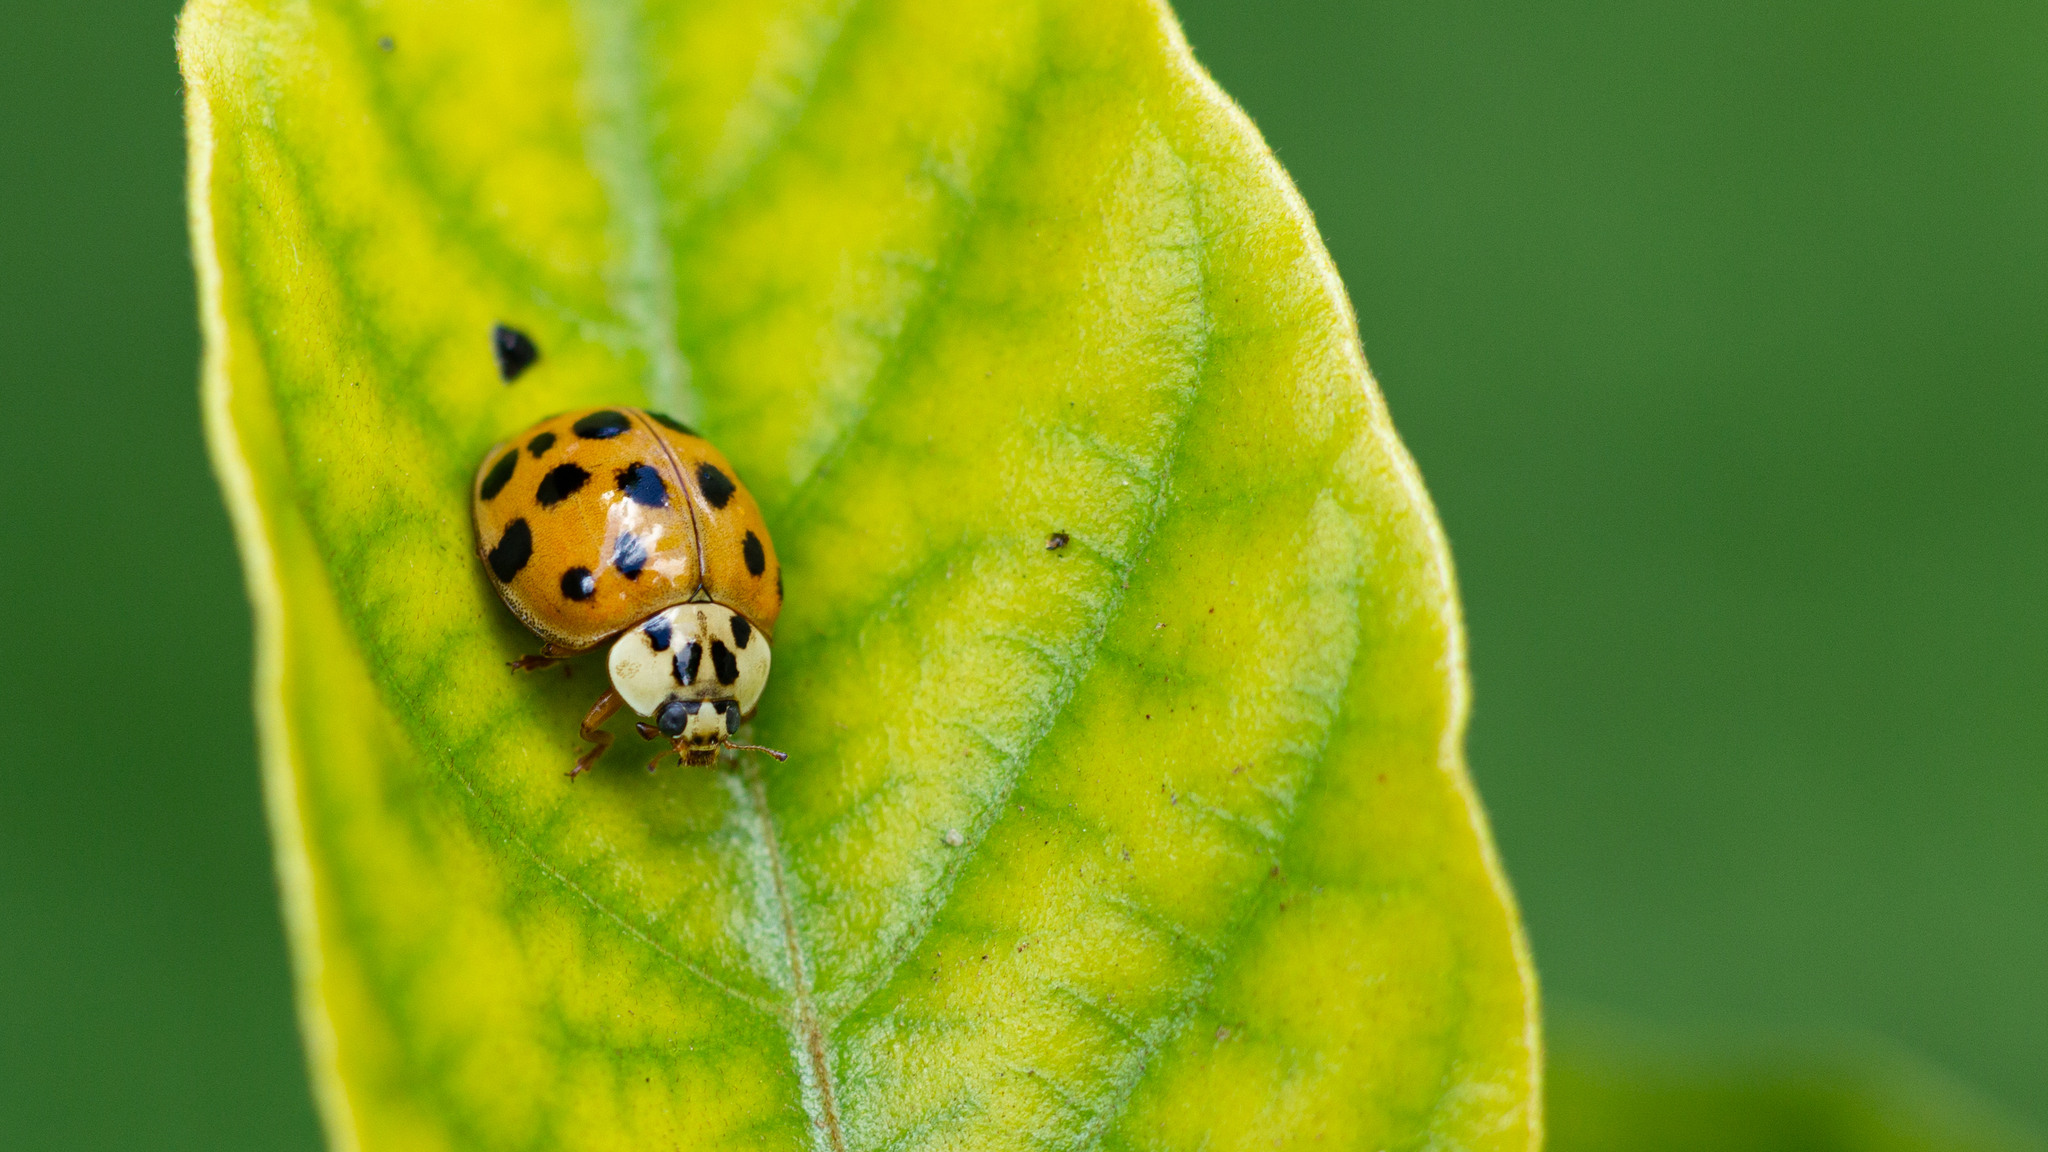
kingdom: Animalia
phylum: Arthropoda
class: Insecta
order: Coleoptera
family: Coccinellidae
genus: Harmonia
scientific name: Harmonia axyridis
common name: Harlequin ladybird
